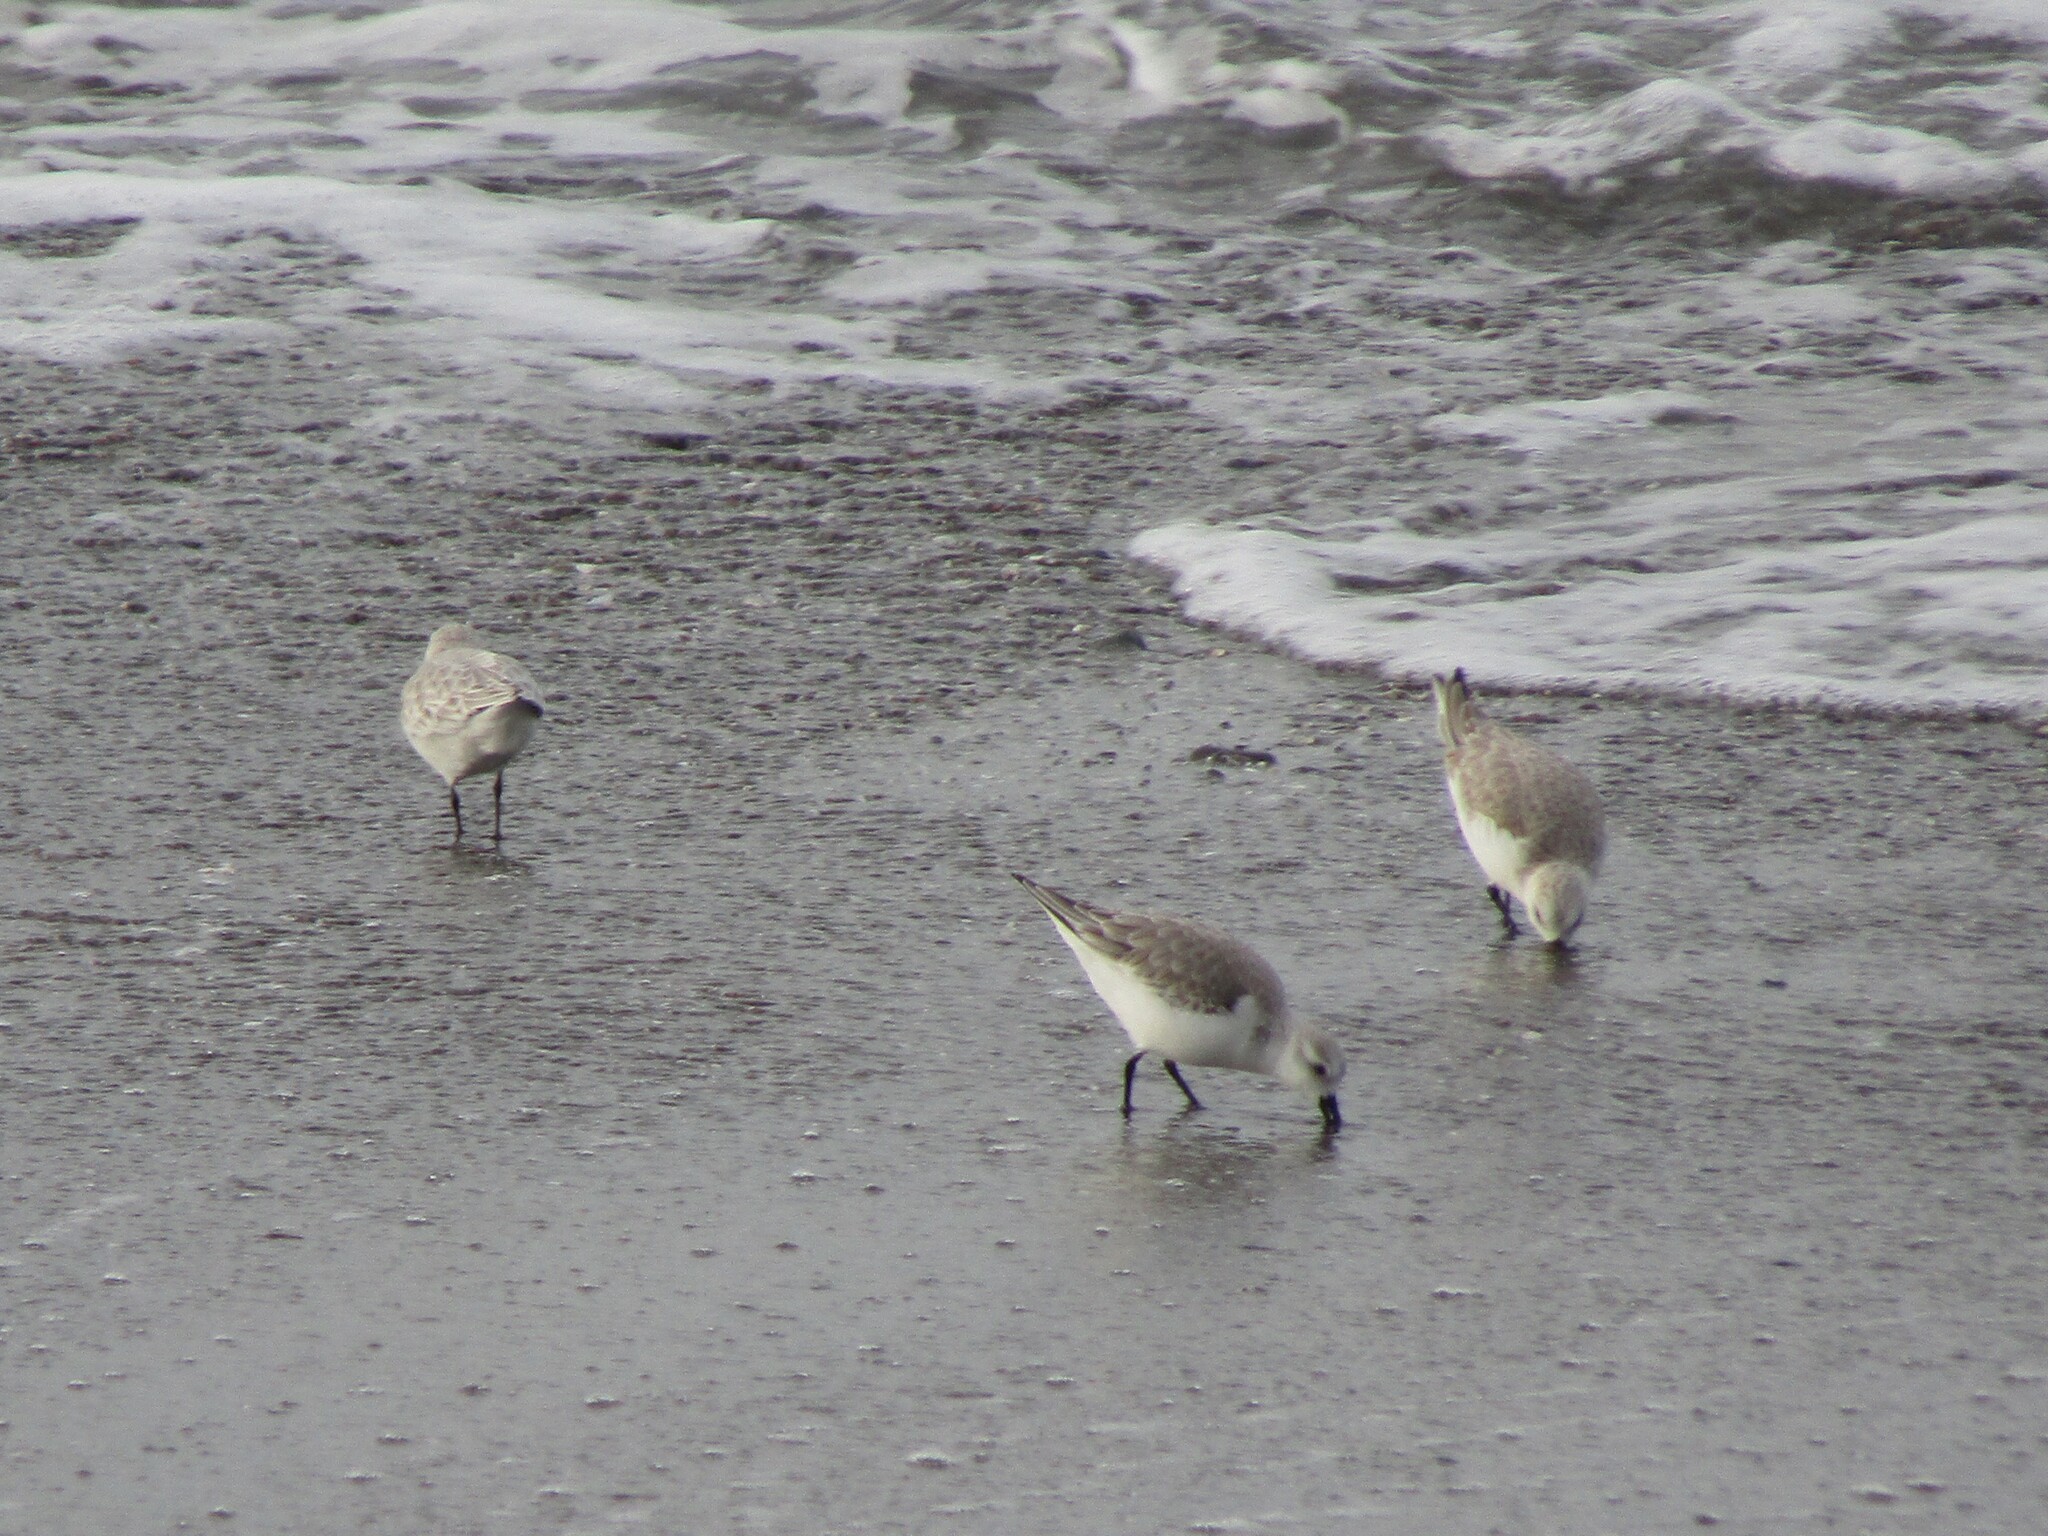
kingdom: Animalia
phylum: Chordata
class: Aves
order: Charadriiformes
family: Scolopacidae
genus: Calidris
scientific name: Calidris alba
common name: Sanderling
